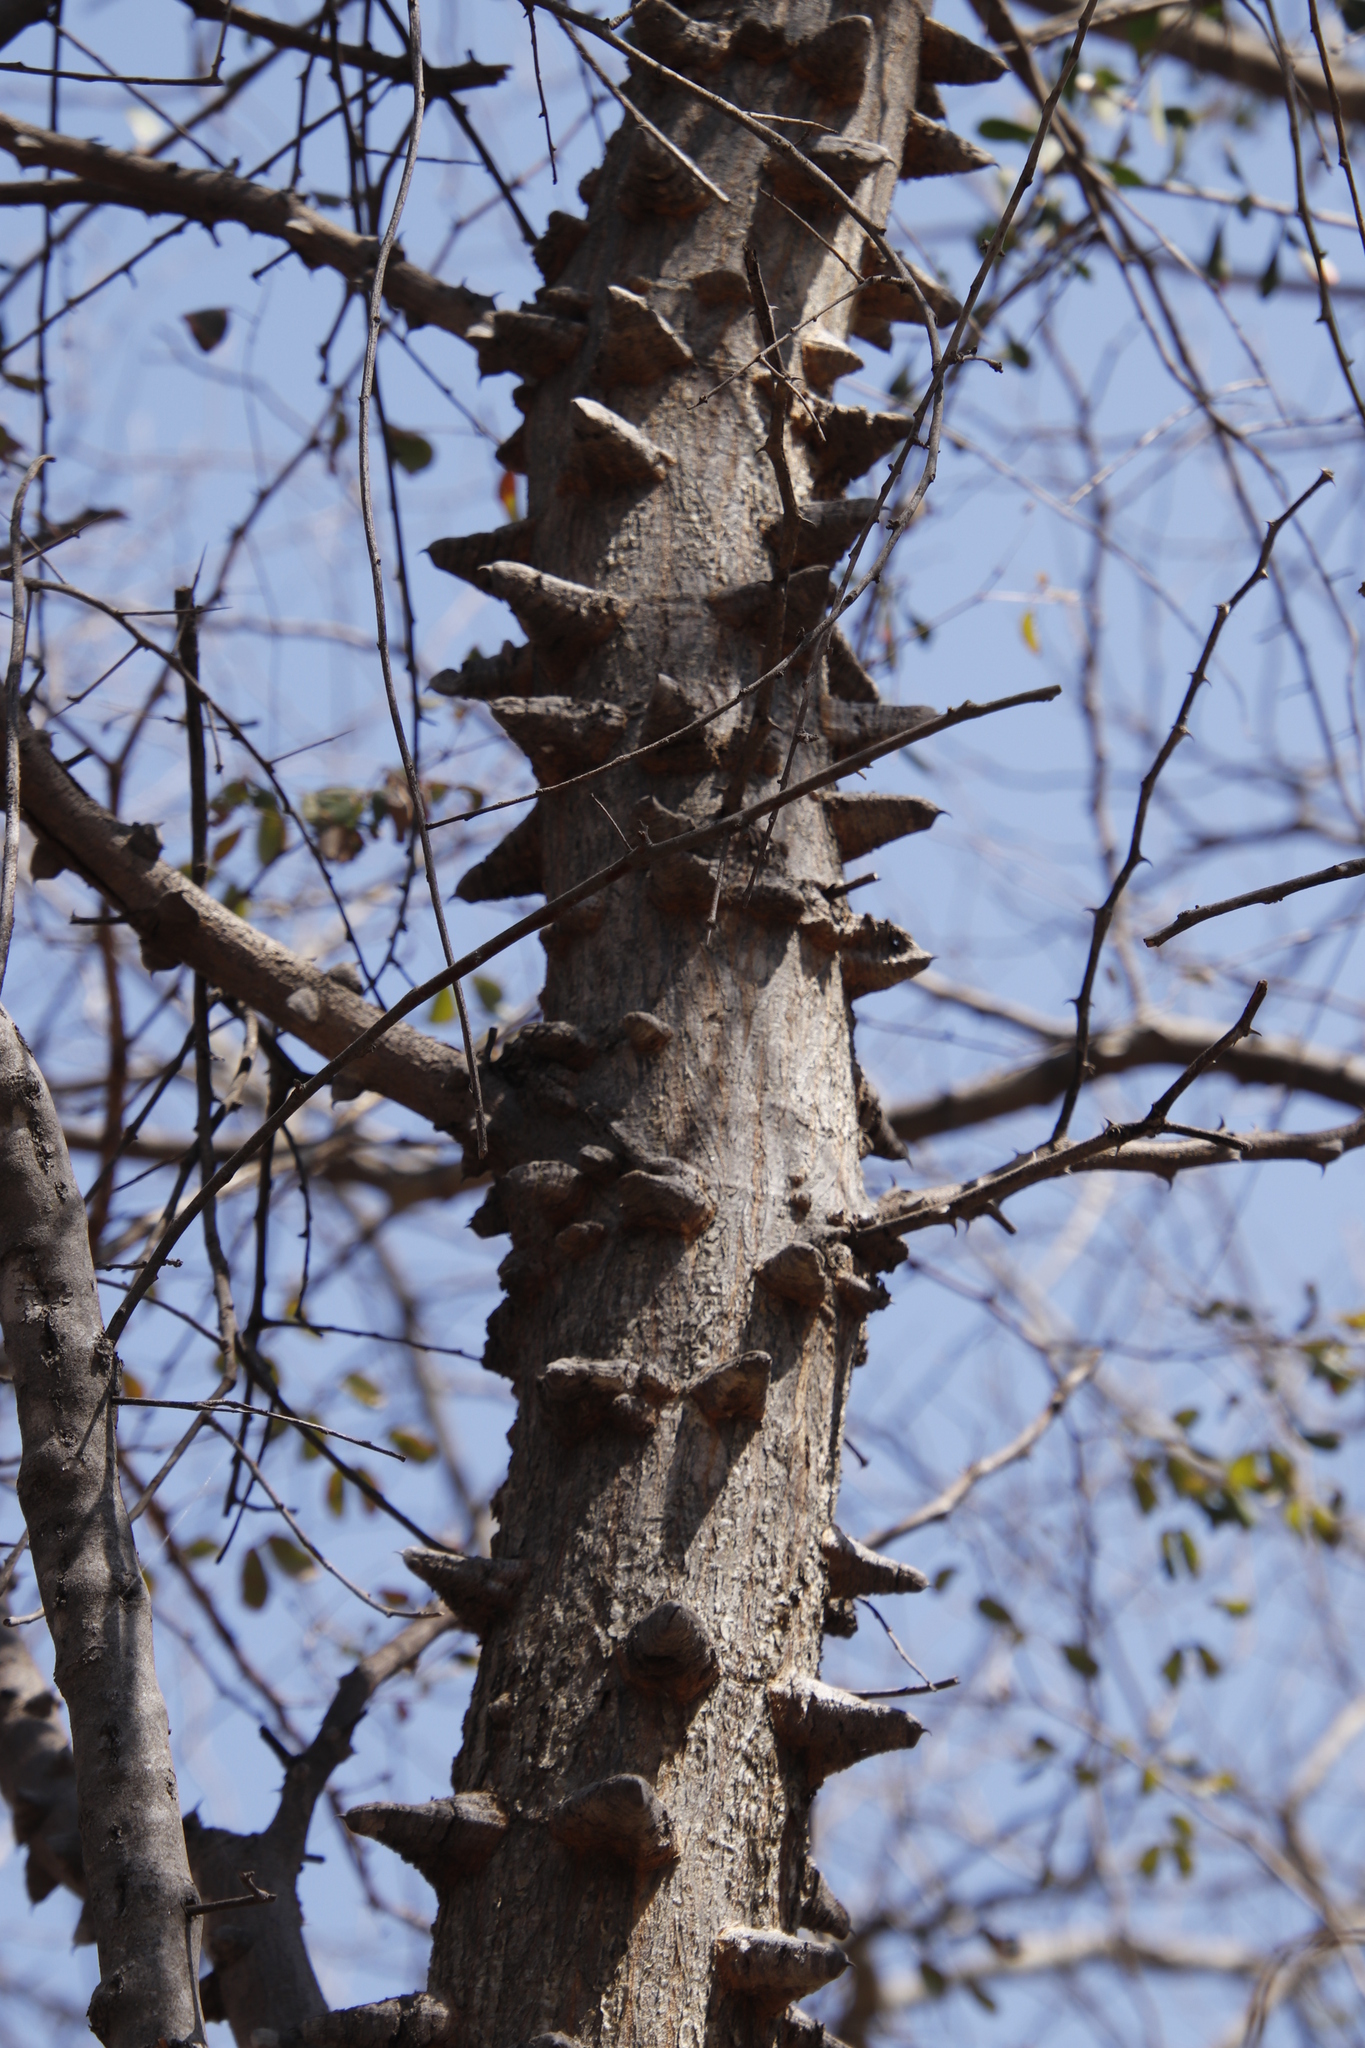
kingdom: Plantae
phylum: Tracheophyta
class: Magnoliopsida
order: Fabales
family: Fabaceae
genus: Senegalia
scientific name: Senegalia nigrescens
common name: Knobthorn
